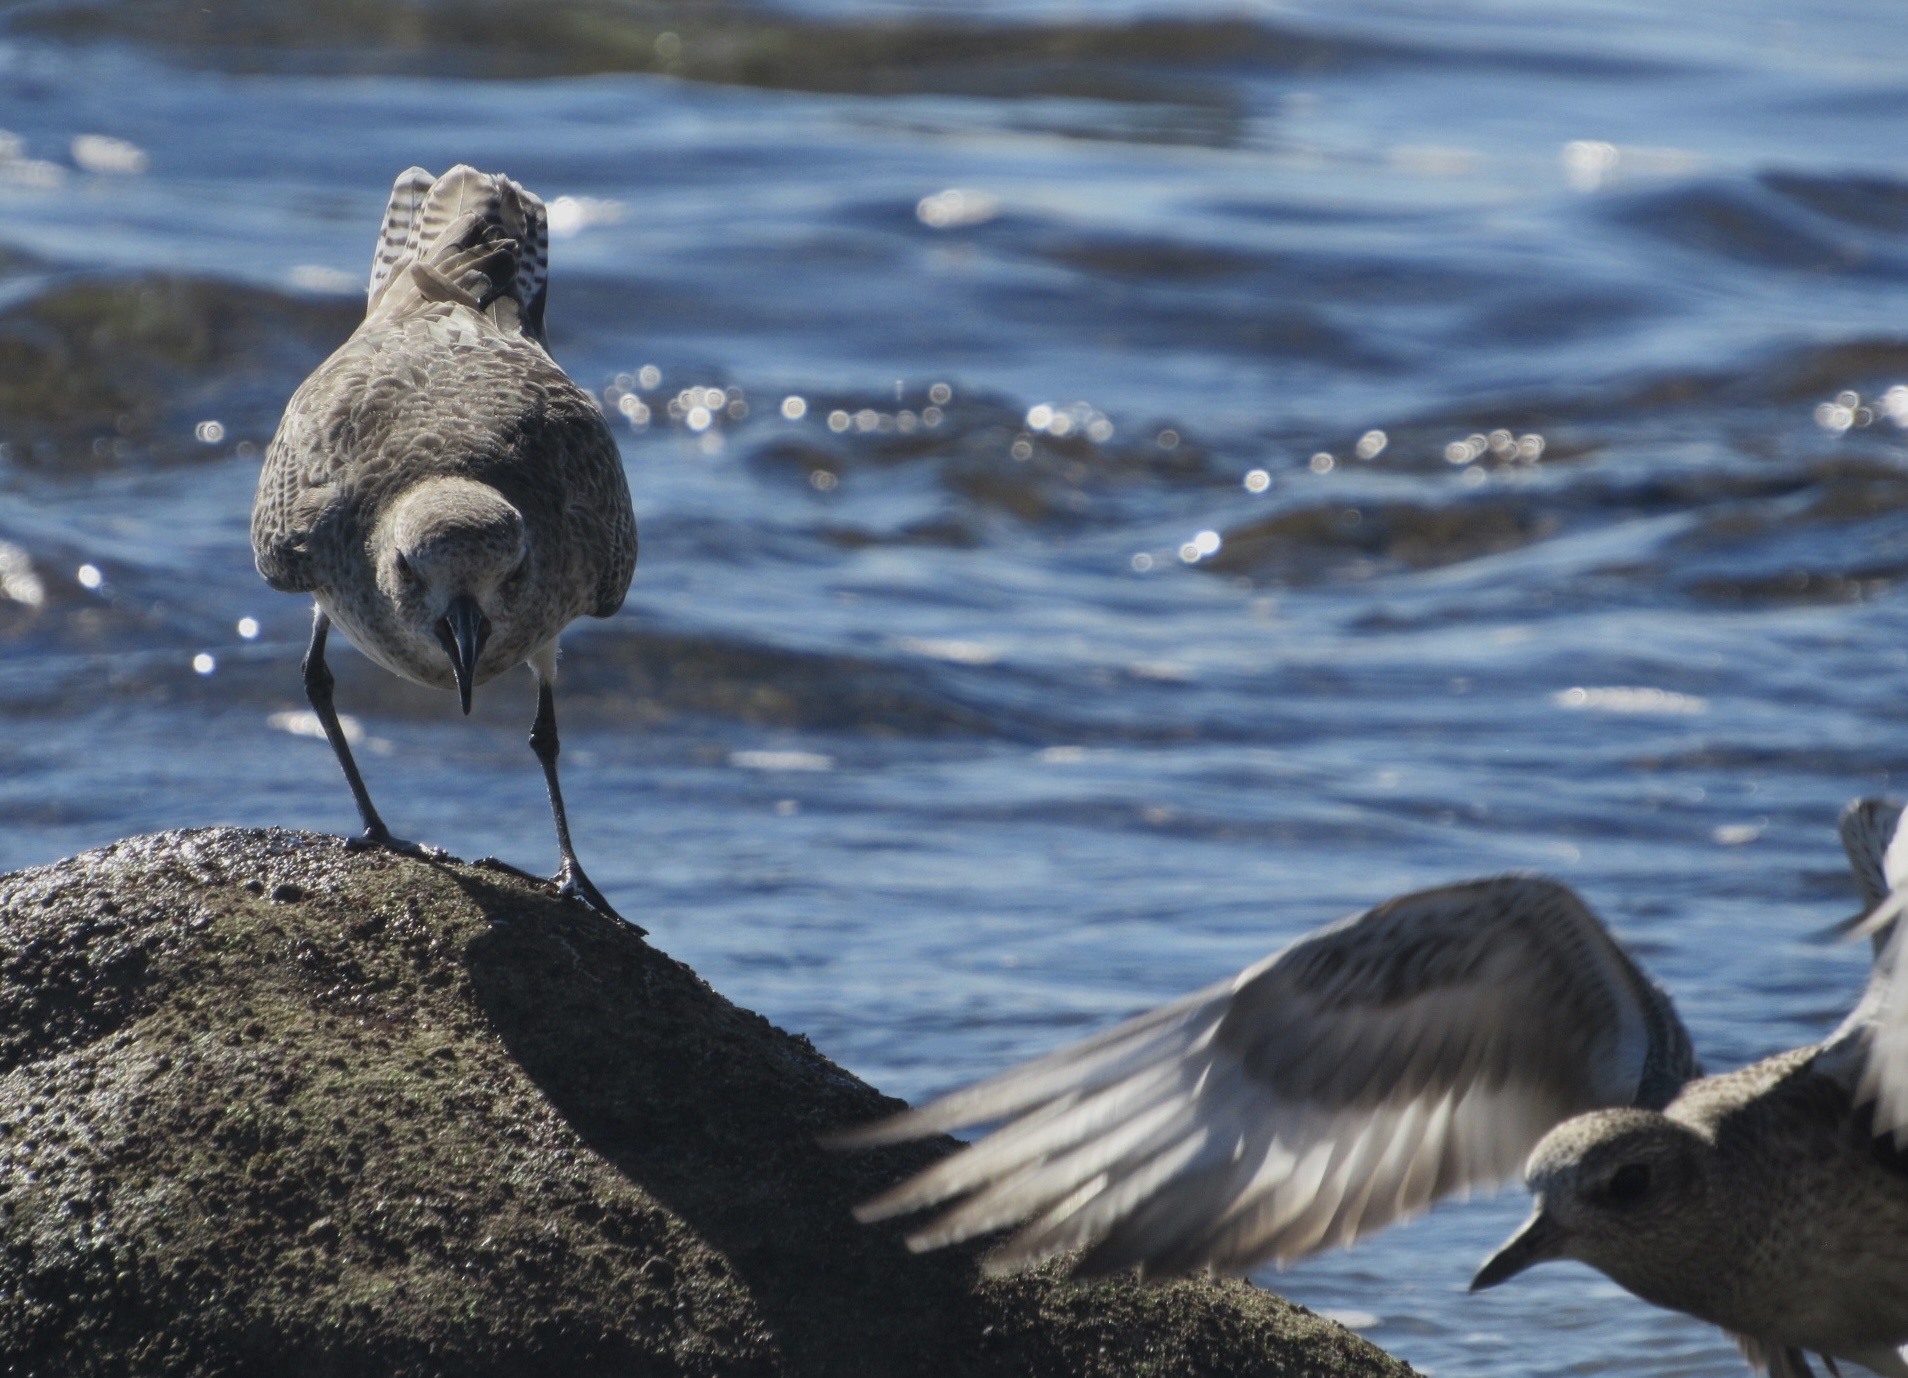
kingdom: Animalia
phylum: Chordata
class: Aves
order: Charadriiformes
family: Charadriidae
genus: Pluvialis
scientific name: Pluvialis squatarola
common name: Grey plover
